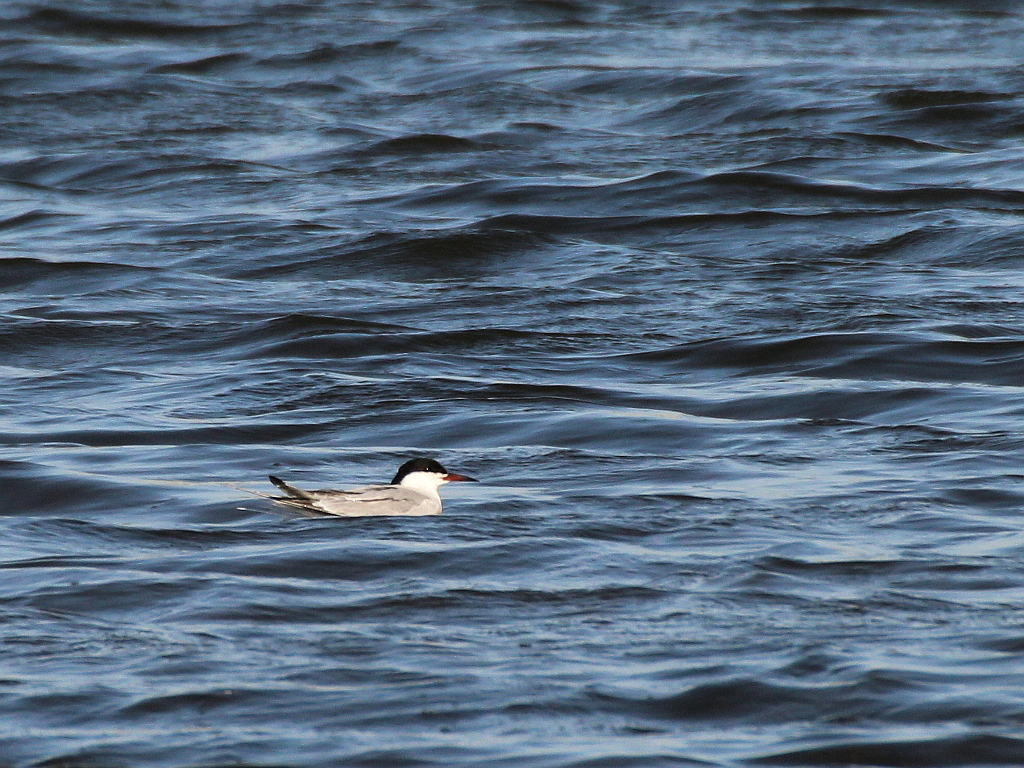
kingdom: Animalia
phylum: Chordata
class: Aves
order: Charadriiformes
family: Laridae
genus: Sterna
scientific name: Sterna hirundo
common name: Common tern
